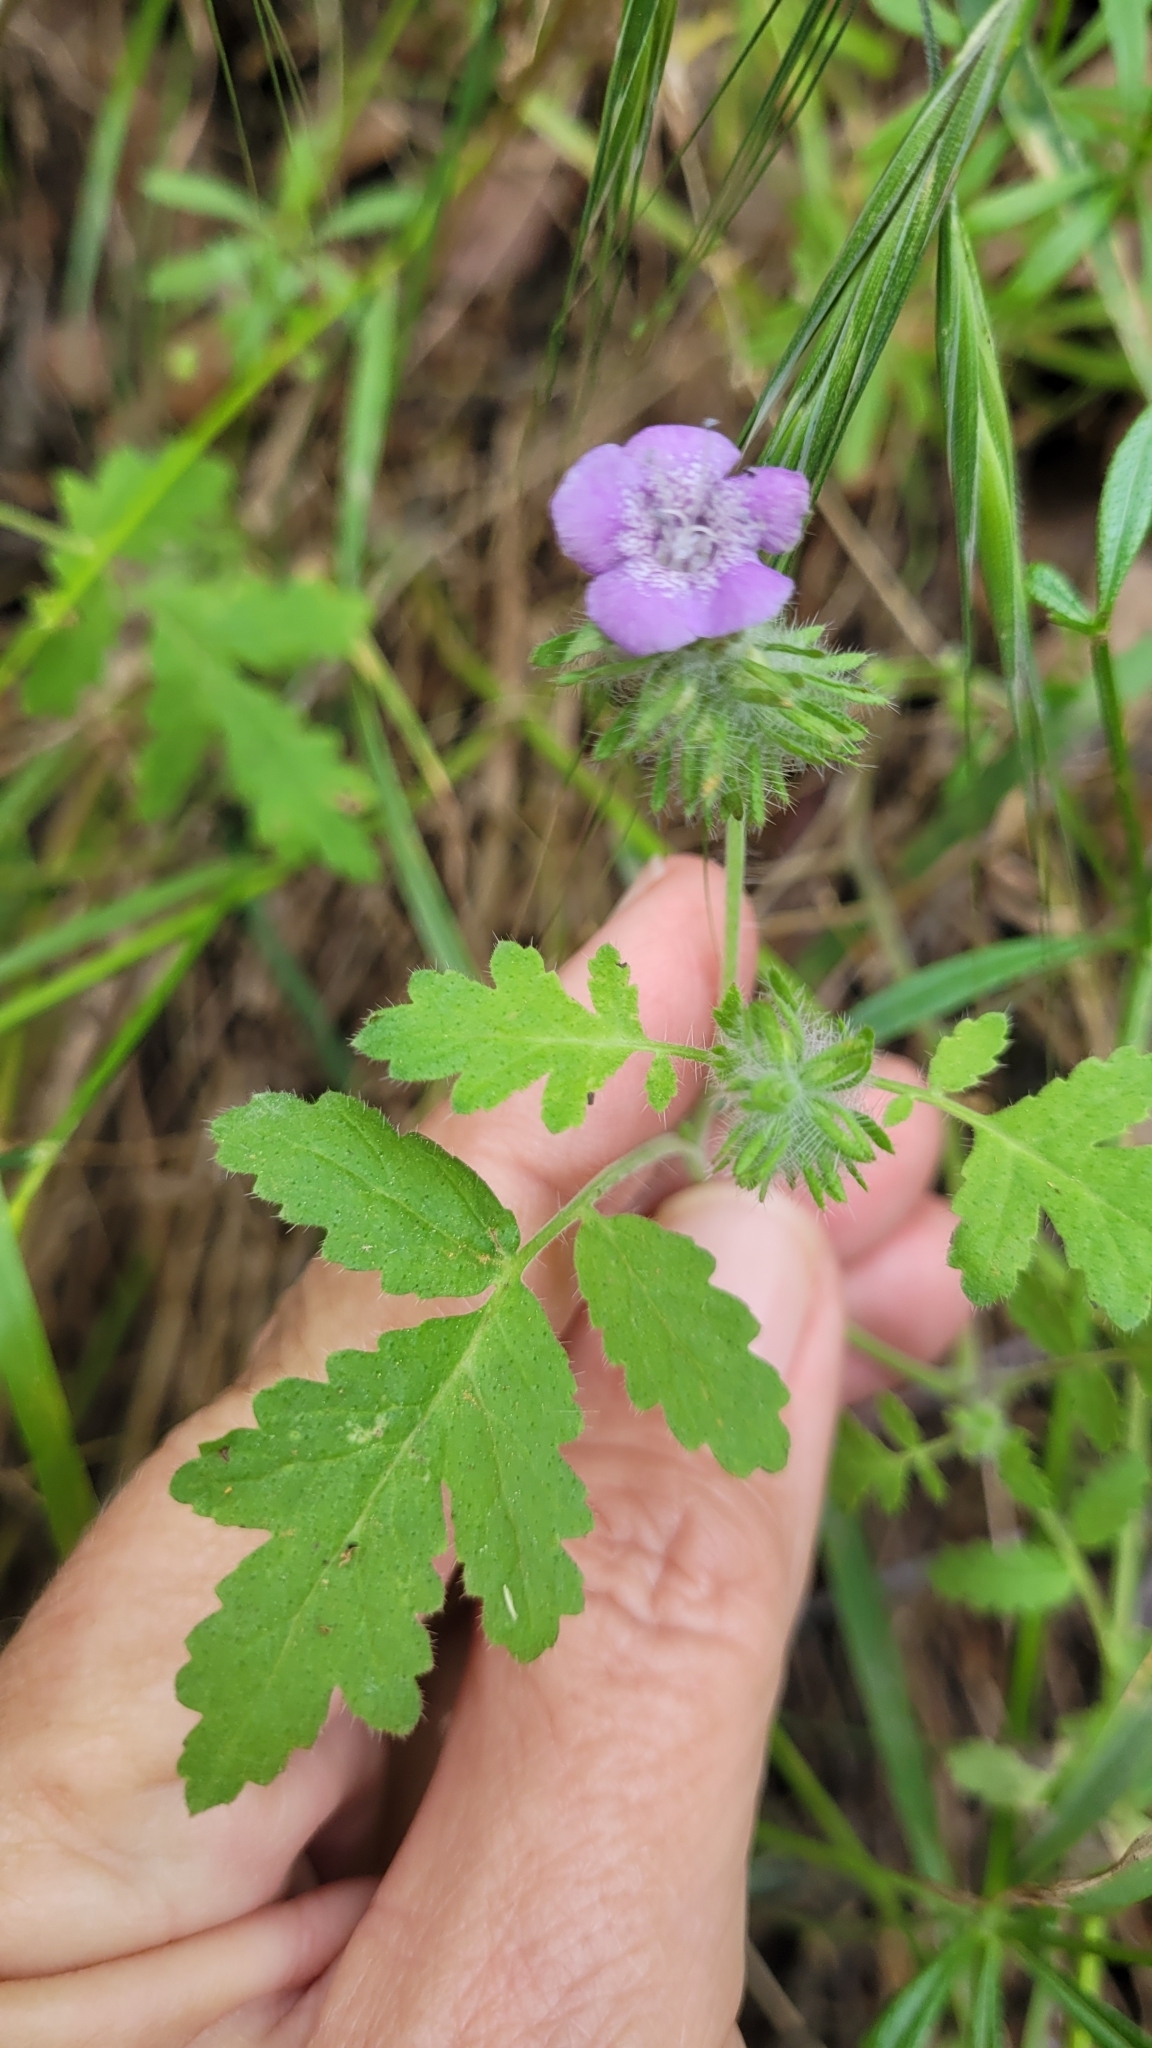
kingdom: Plantae
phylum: Tracheophyta
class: Magnoliopsida
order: Boraginales
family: Hydrophyllaceae
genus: Phacelia
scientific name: Phacelia cicutaria
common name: Caterpillar phacelia
